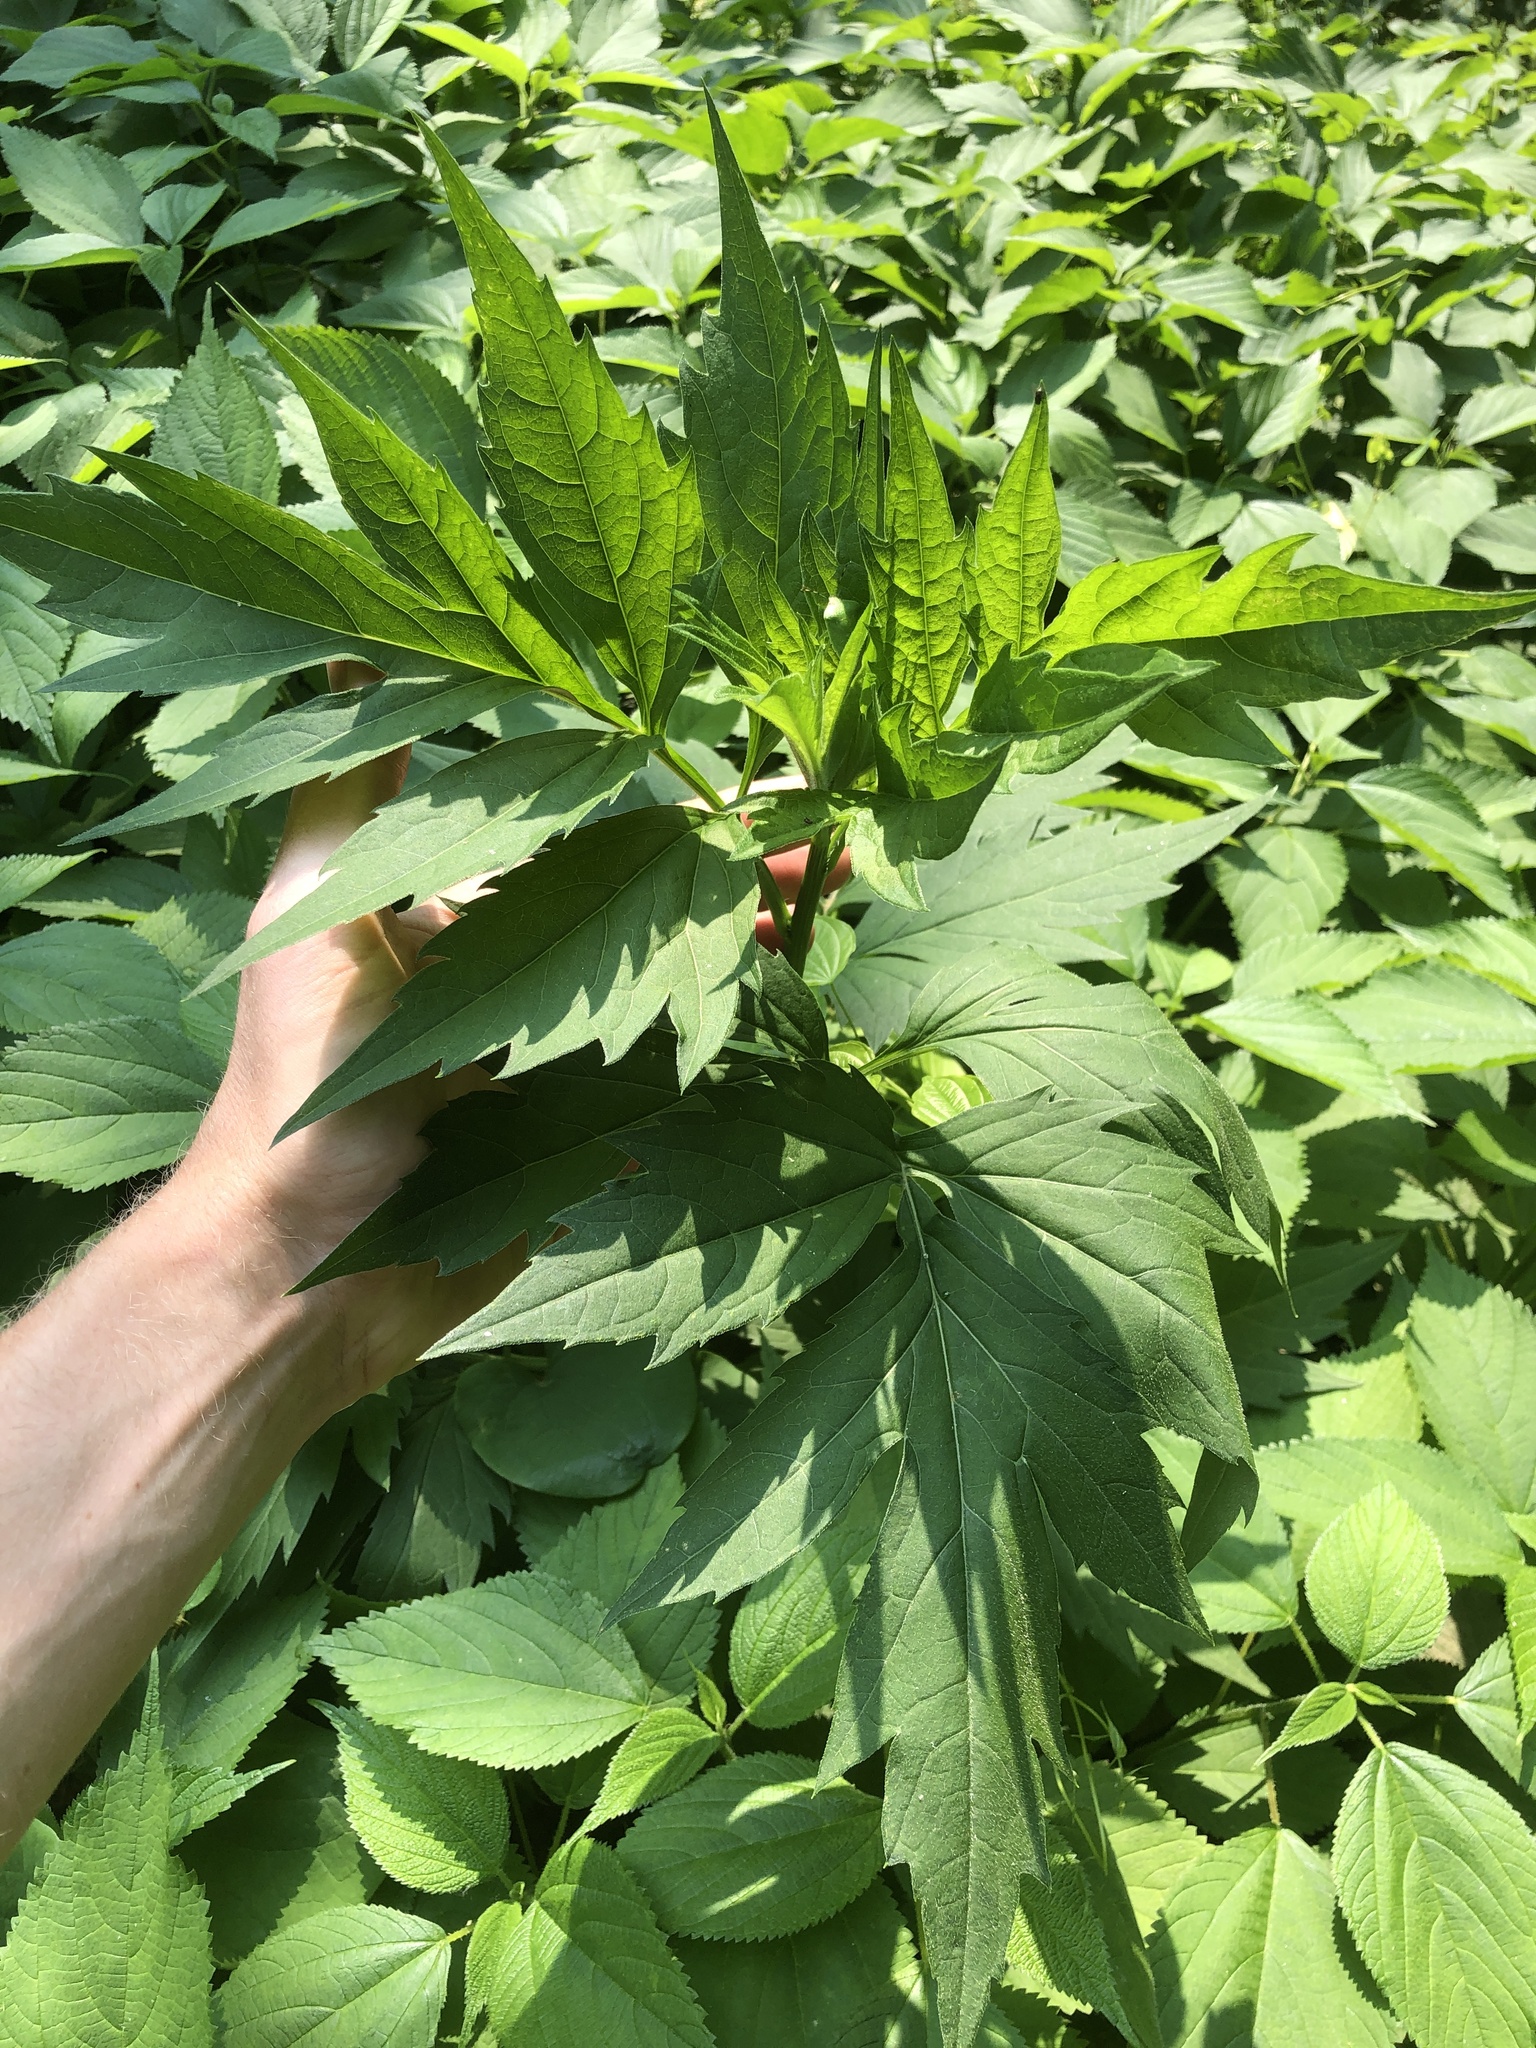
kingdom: Plantae
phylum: Tracheophyta
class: Magnoliopsida
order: Asterales
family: Asteraceae
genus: Rudbeckia
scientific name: Rudbeckia laciniata
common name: Coneflower
